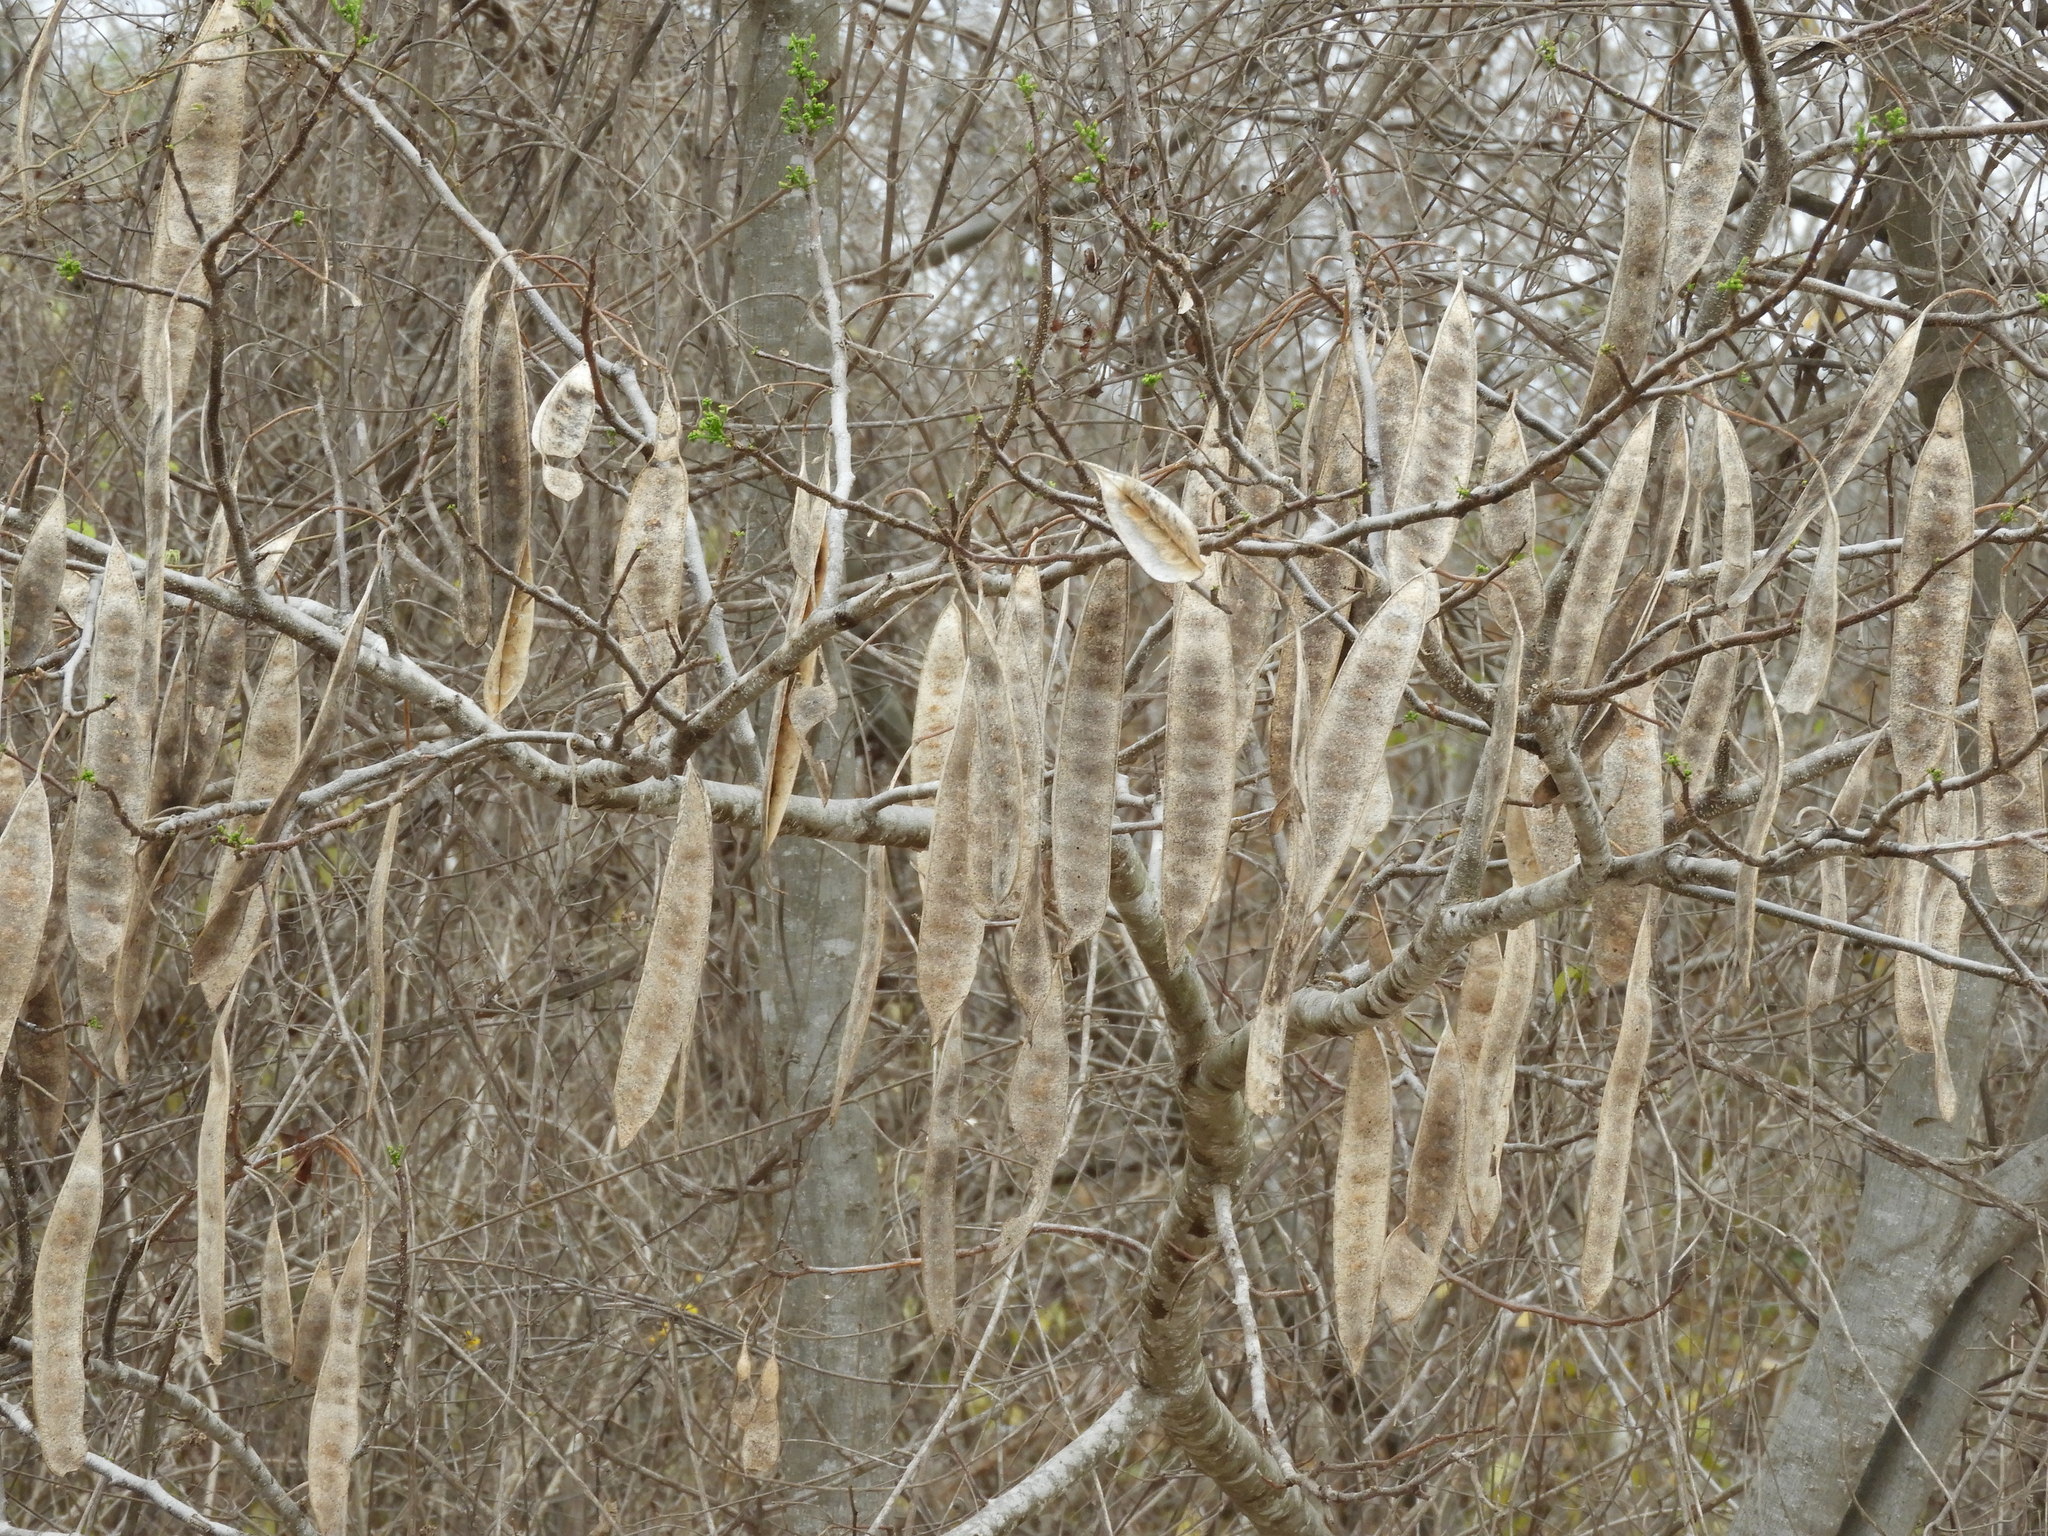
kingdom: Plantae
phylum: Tracheophyta
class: Magnoliopsida
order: Fabales
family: Fabaceae
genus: Albizia
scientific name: Albizia occidentalis
